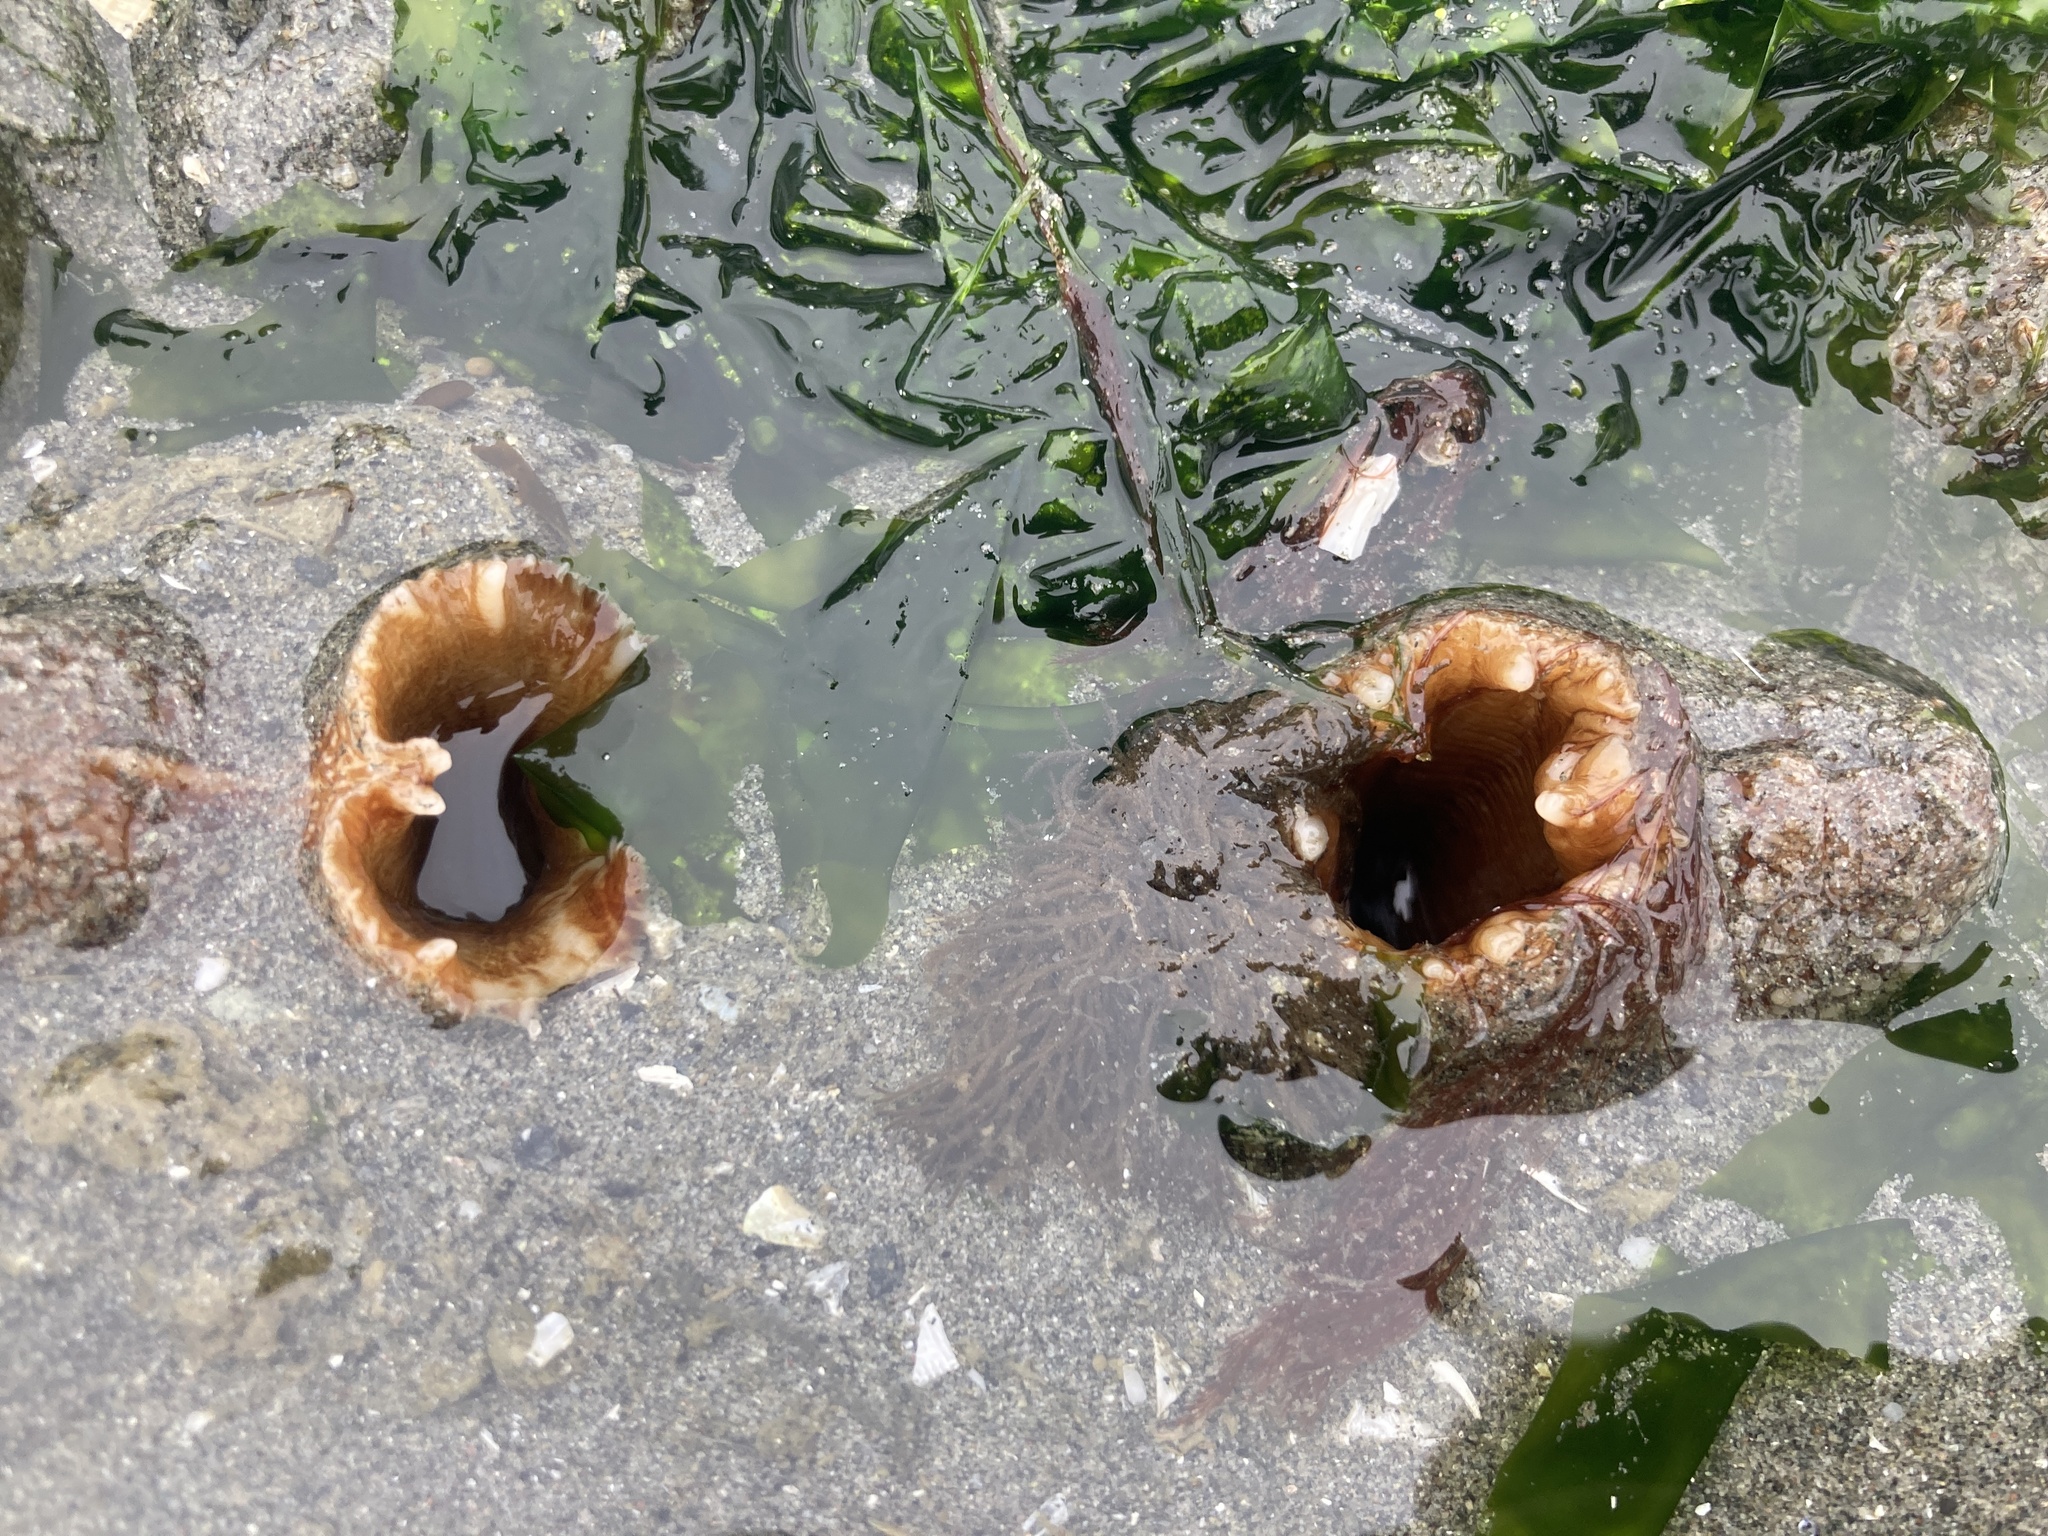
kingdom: Animalia
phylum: Mollusca
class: Bivalvia
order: Myida
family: Pholadidae
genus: Zirfaea
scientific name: Zirfaea pilsbryi
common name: Rough piddock
